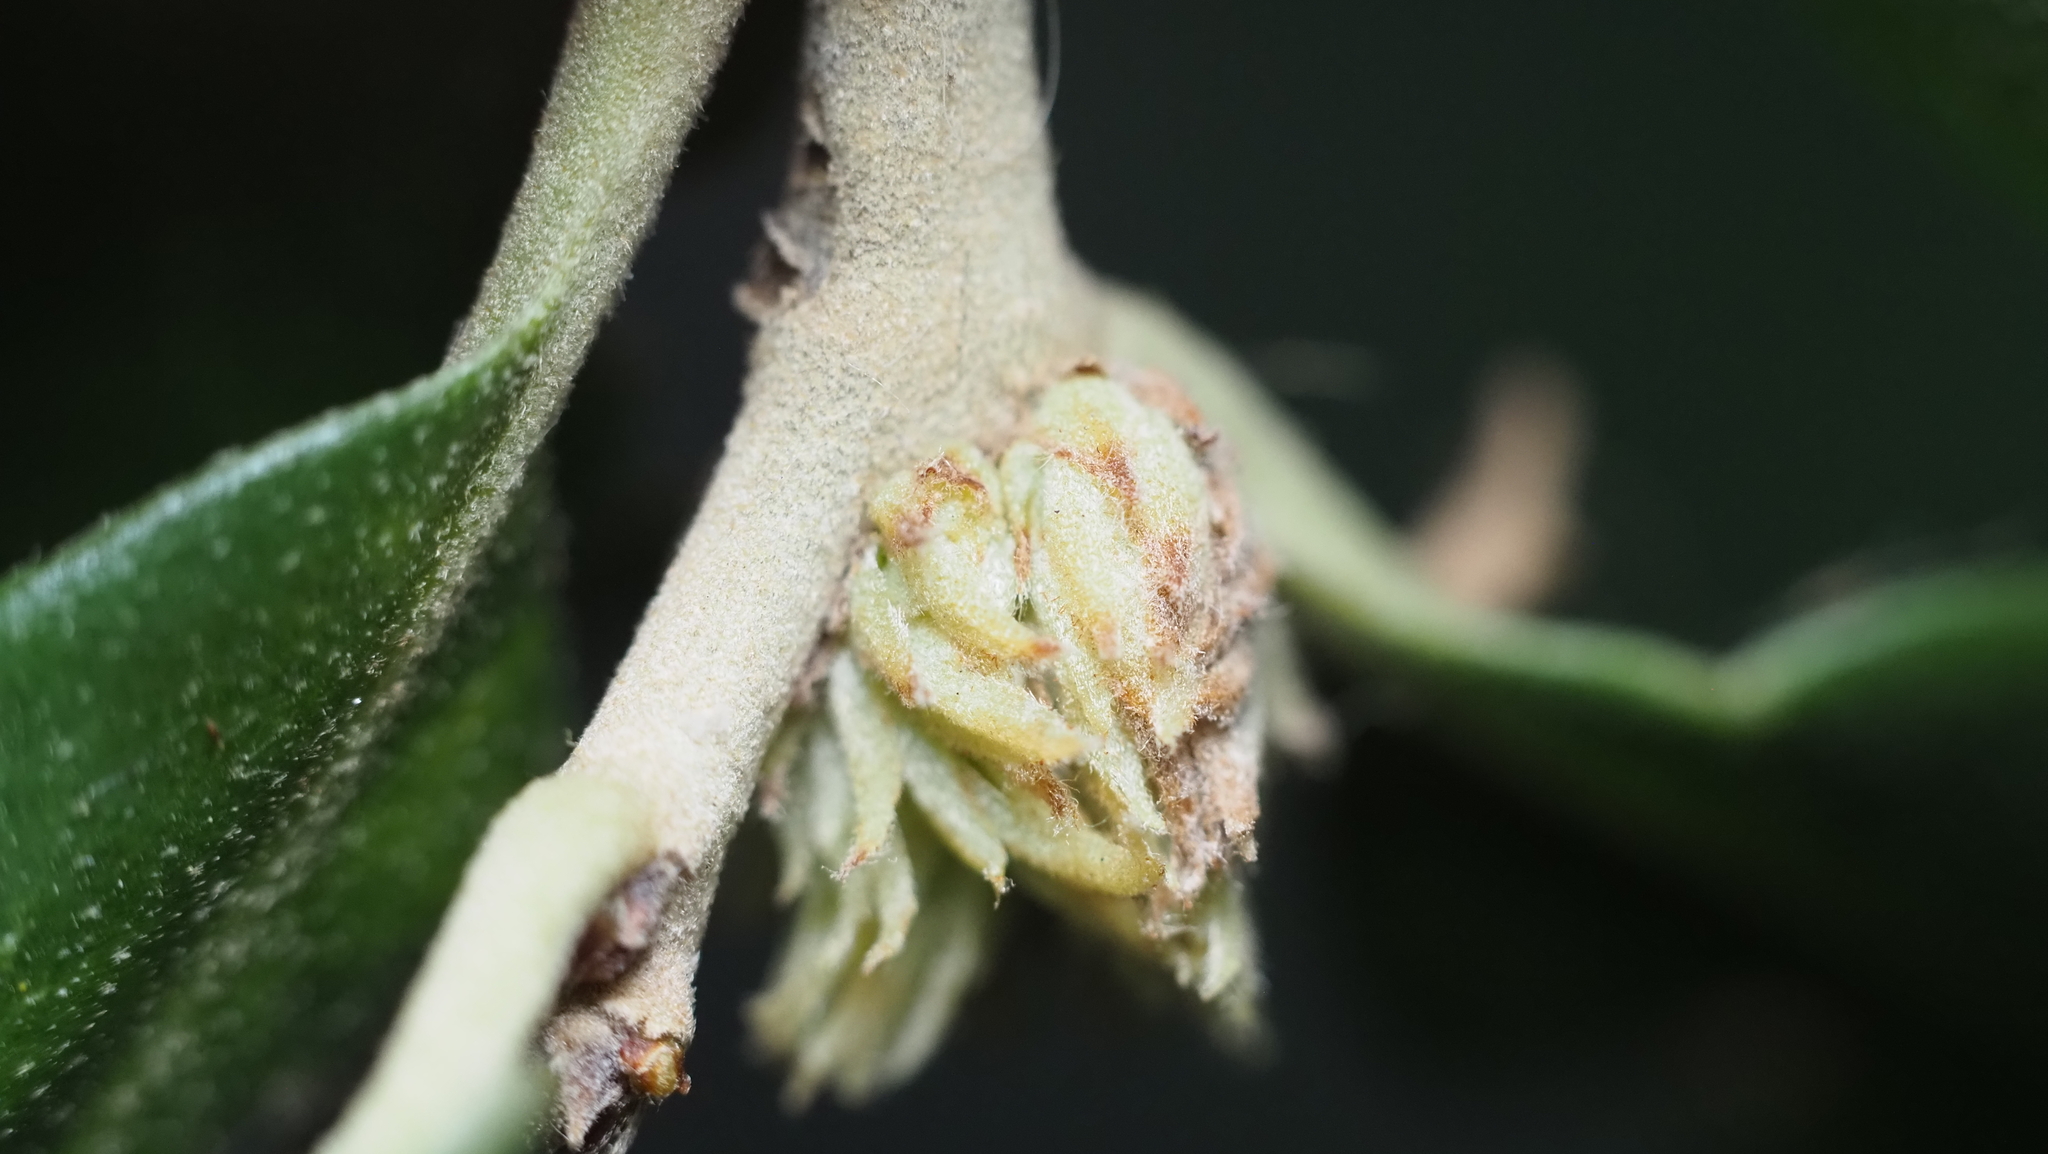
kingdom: Animalia
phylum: Arthropoda
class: Insecta
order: Hymenoptera
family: Cynipidae
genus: Andricus
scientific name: Andricus quercusfoliatus
